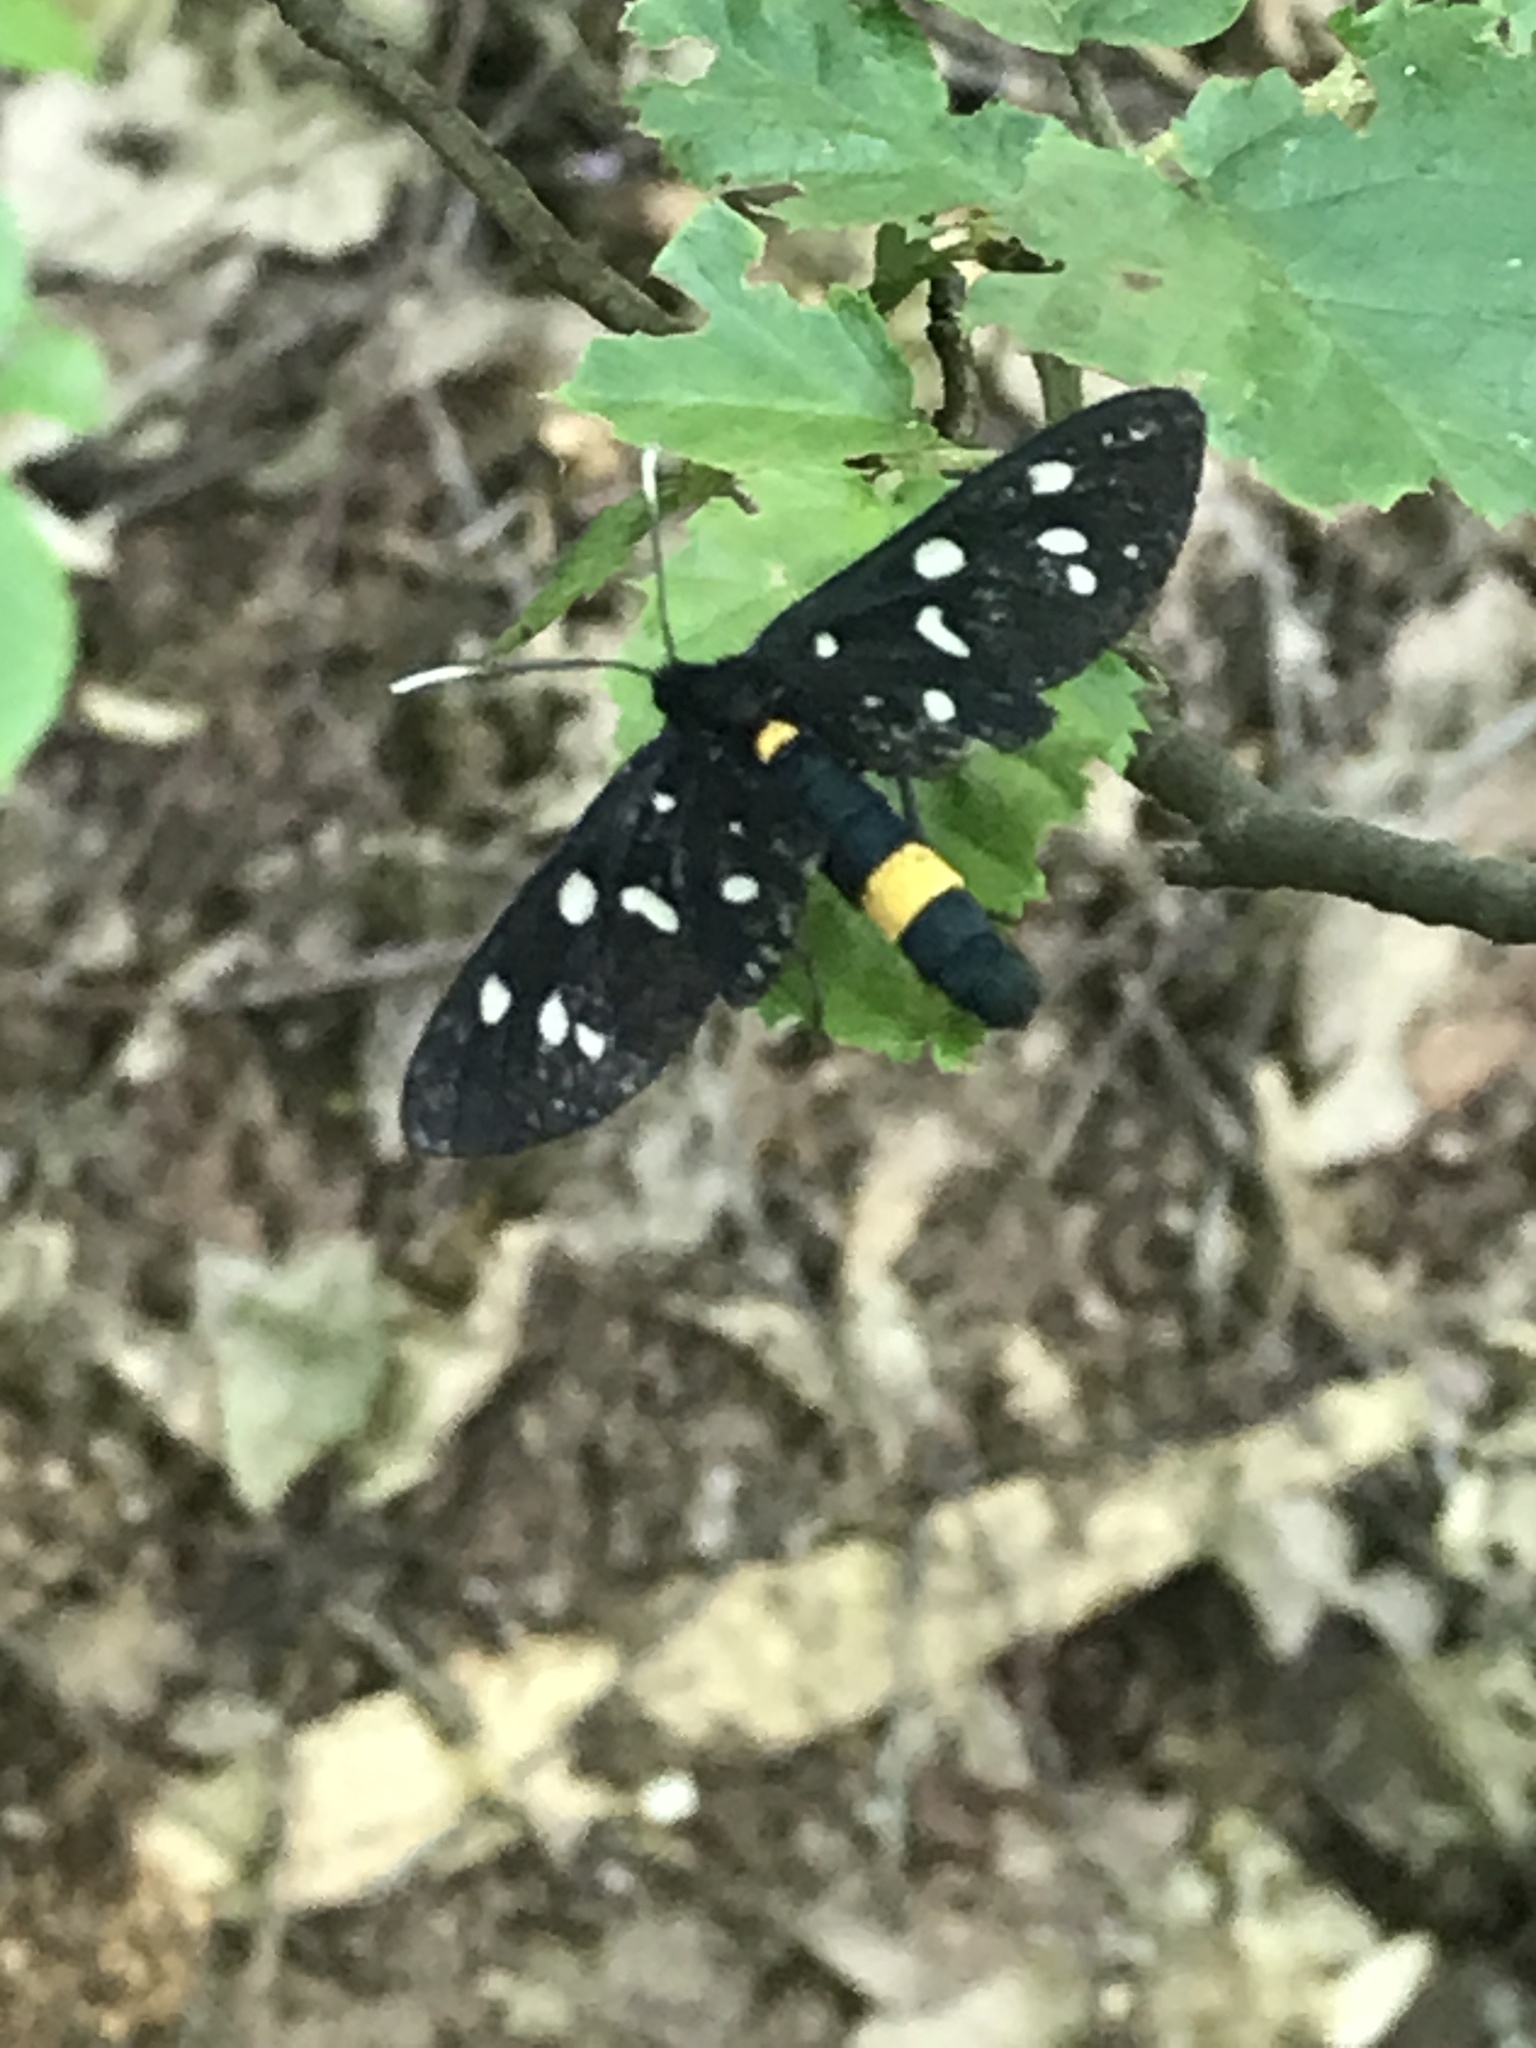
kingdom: Animalia
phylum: Arthropoda
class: Insecta
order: Lepidoptera
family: Erebidae
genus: Amata
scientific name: Amata phegea
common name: Nine-spotted
